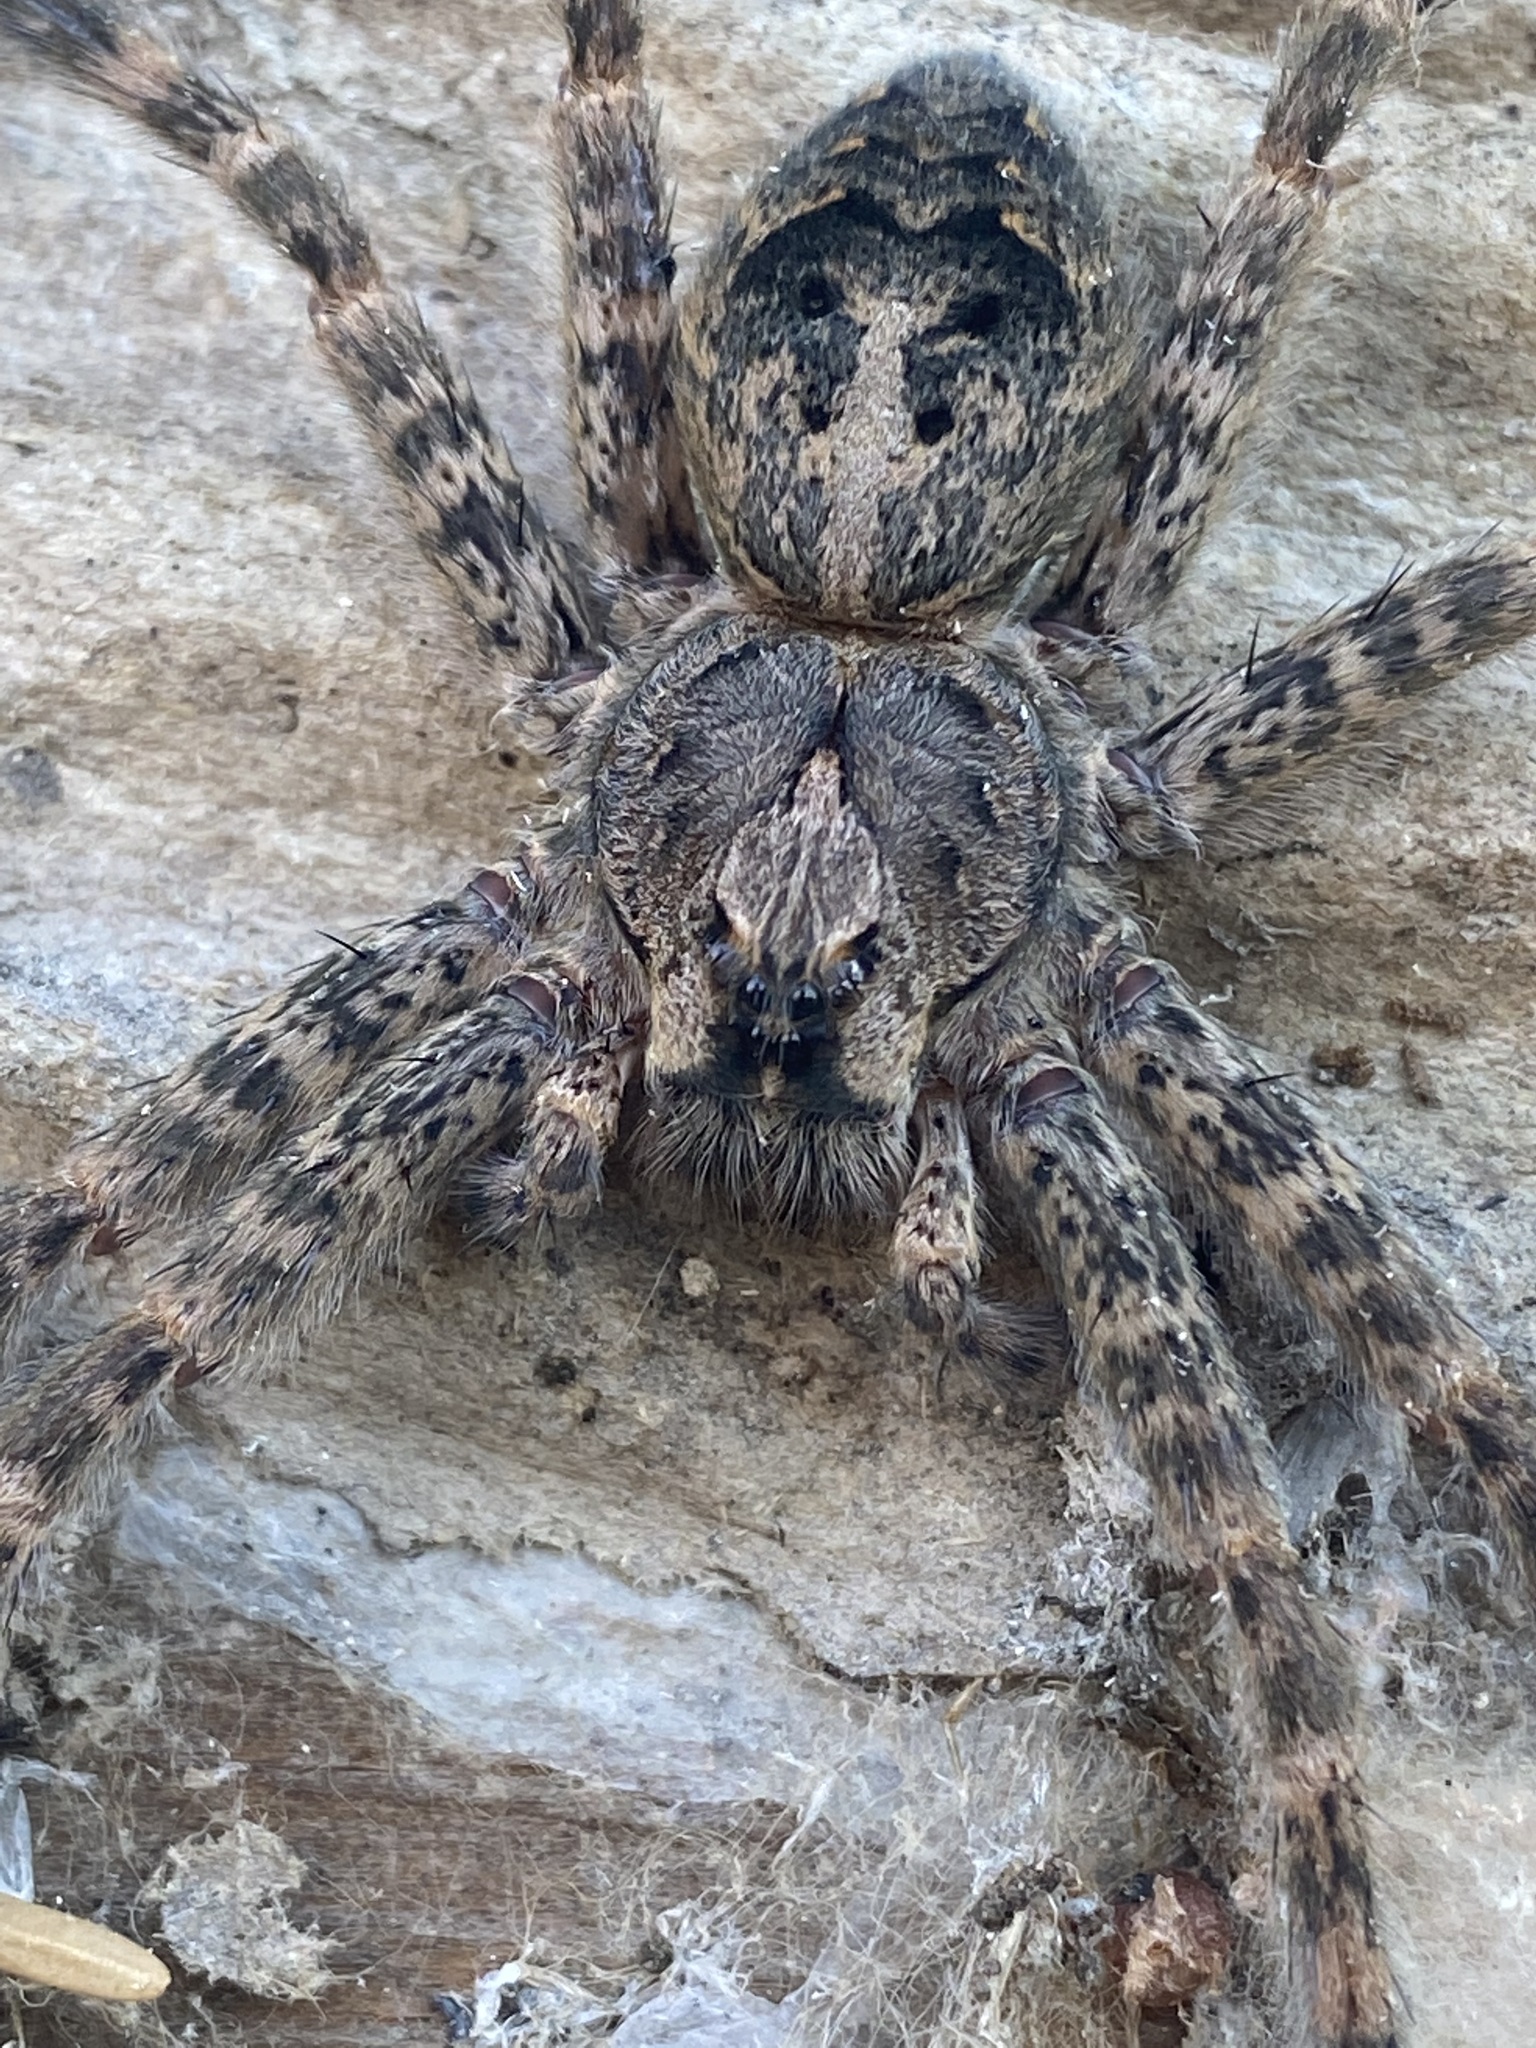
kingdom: Animalia
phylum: Arthropoda
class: Arachnida
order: Araneae
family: Pisauridae
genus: Dolomedes
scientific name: Dolomedes tenebrosus
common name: Dark fishing spider
